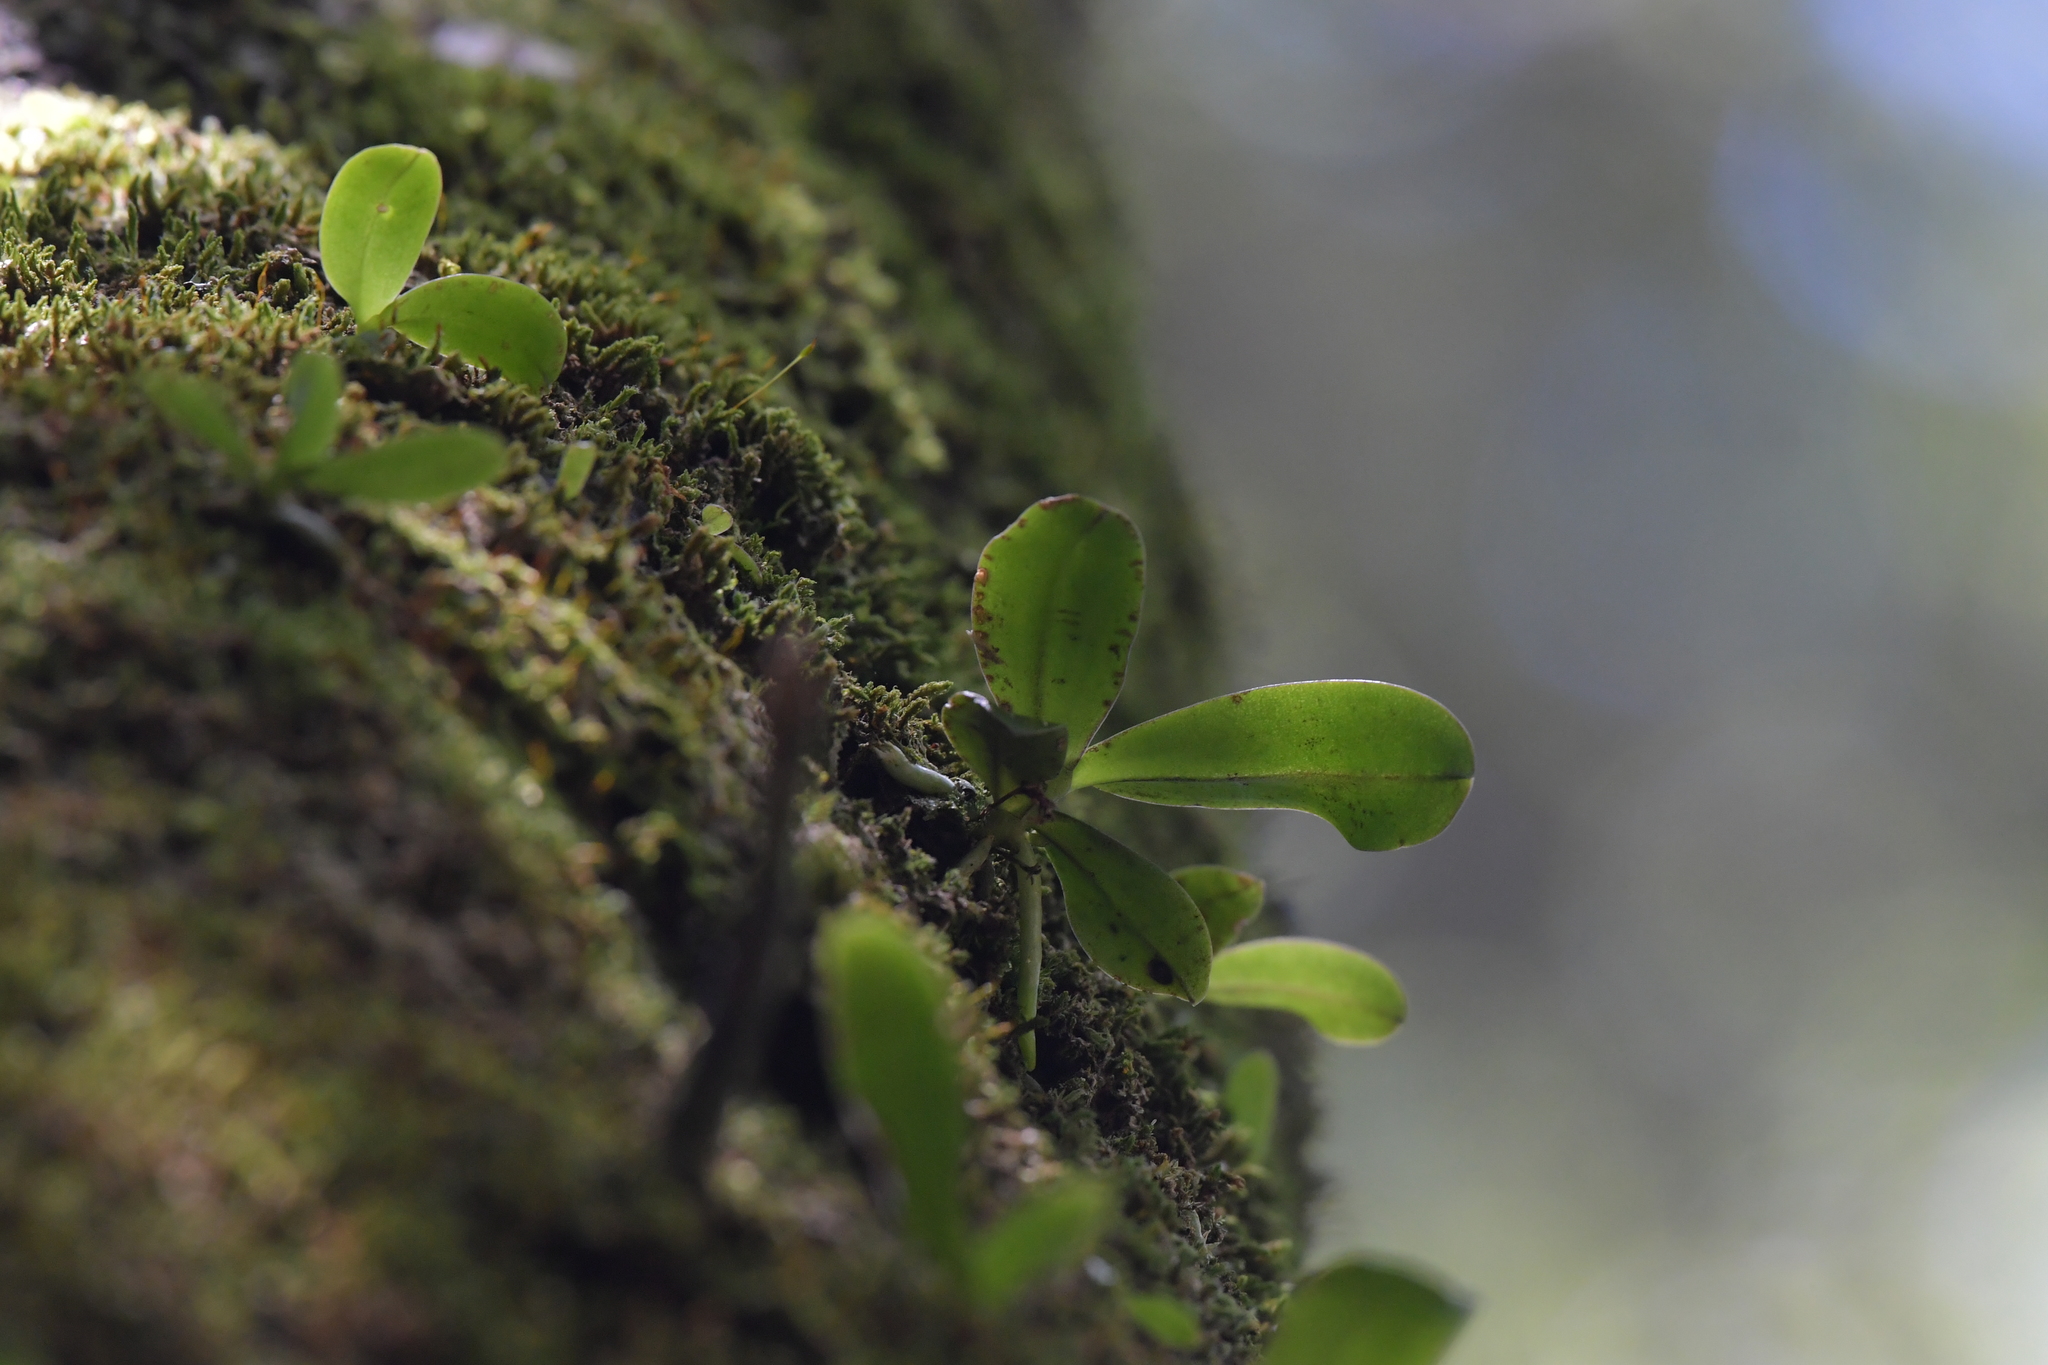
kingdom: Plantae
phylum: Tracheophyta
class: Liliopsida
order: Asparagales
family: Orchidaceae
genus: Drymoanthus
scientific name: Drymoanthus adversus
